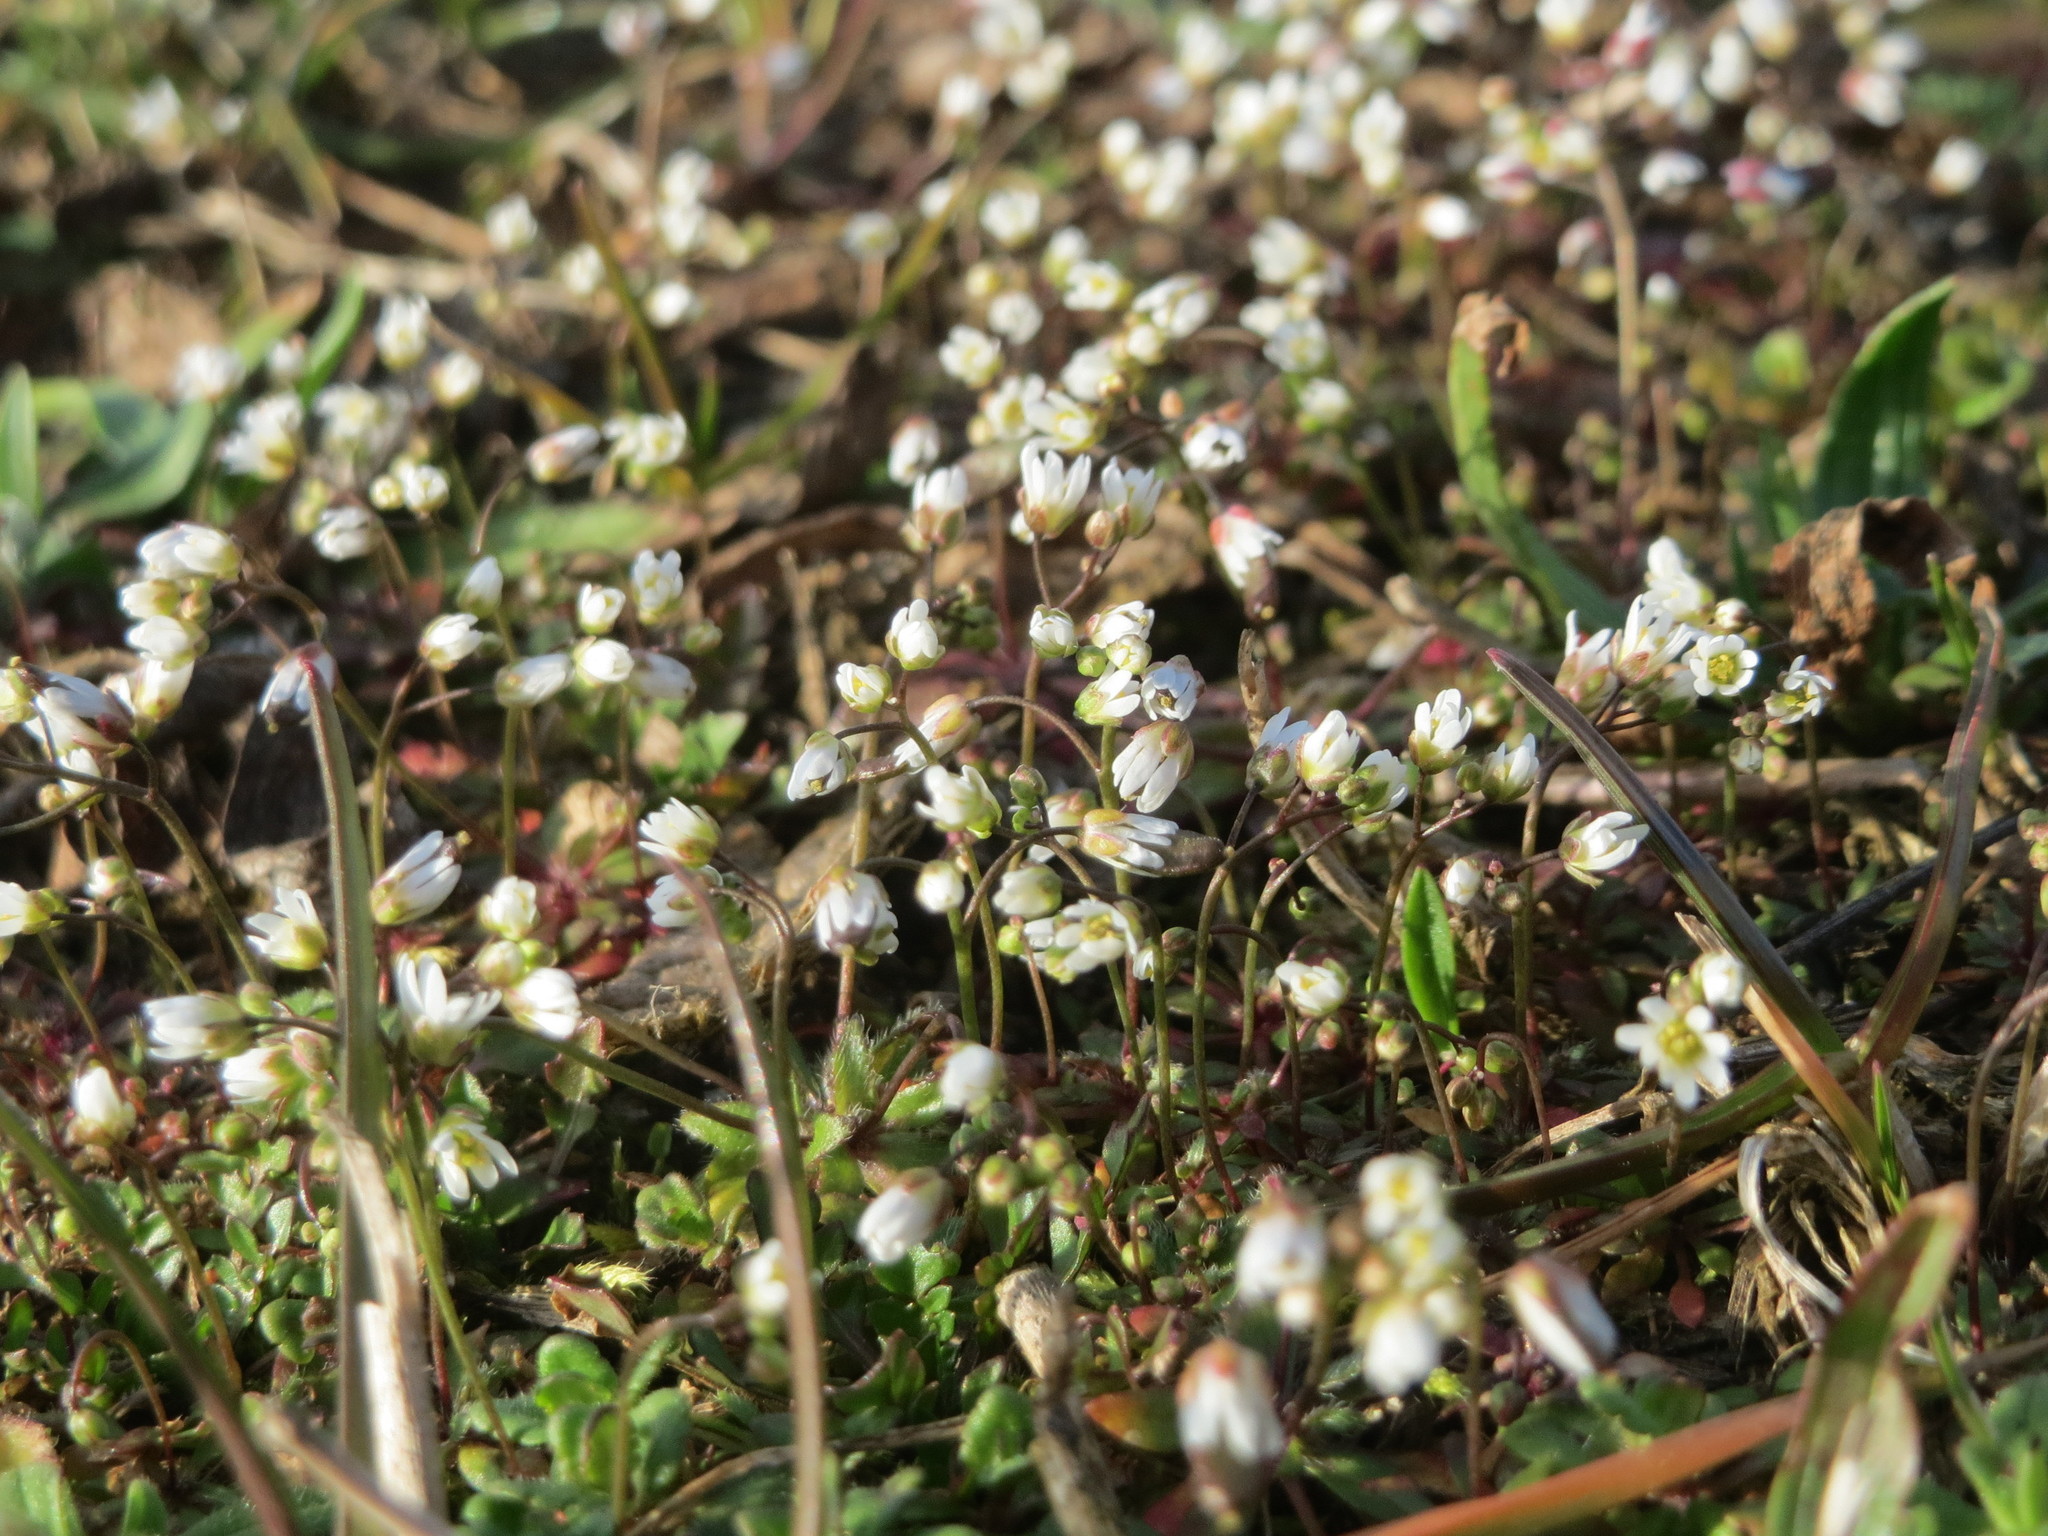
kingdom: Plantae
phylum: Tracheophyta
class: Magnoliopsida
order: Brassicales
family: Brassicaceae
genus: Draba
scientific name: Draba verna
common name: Spring draba
